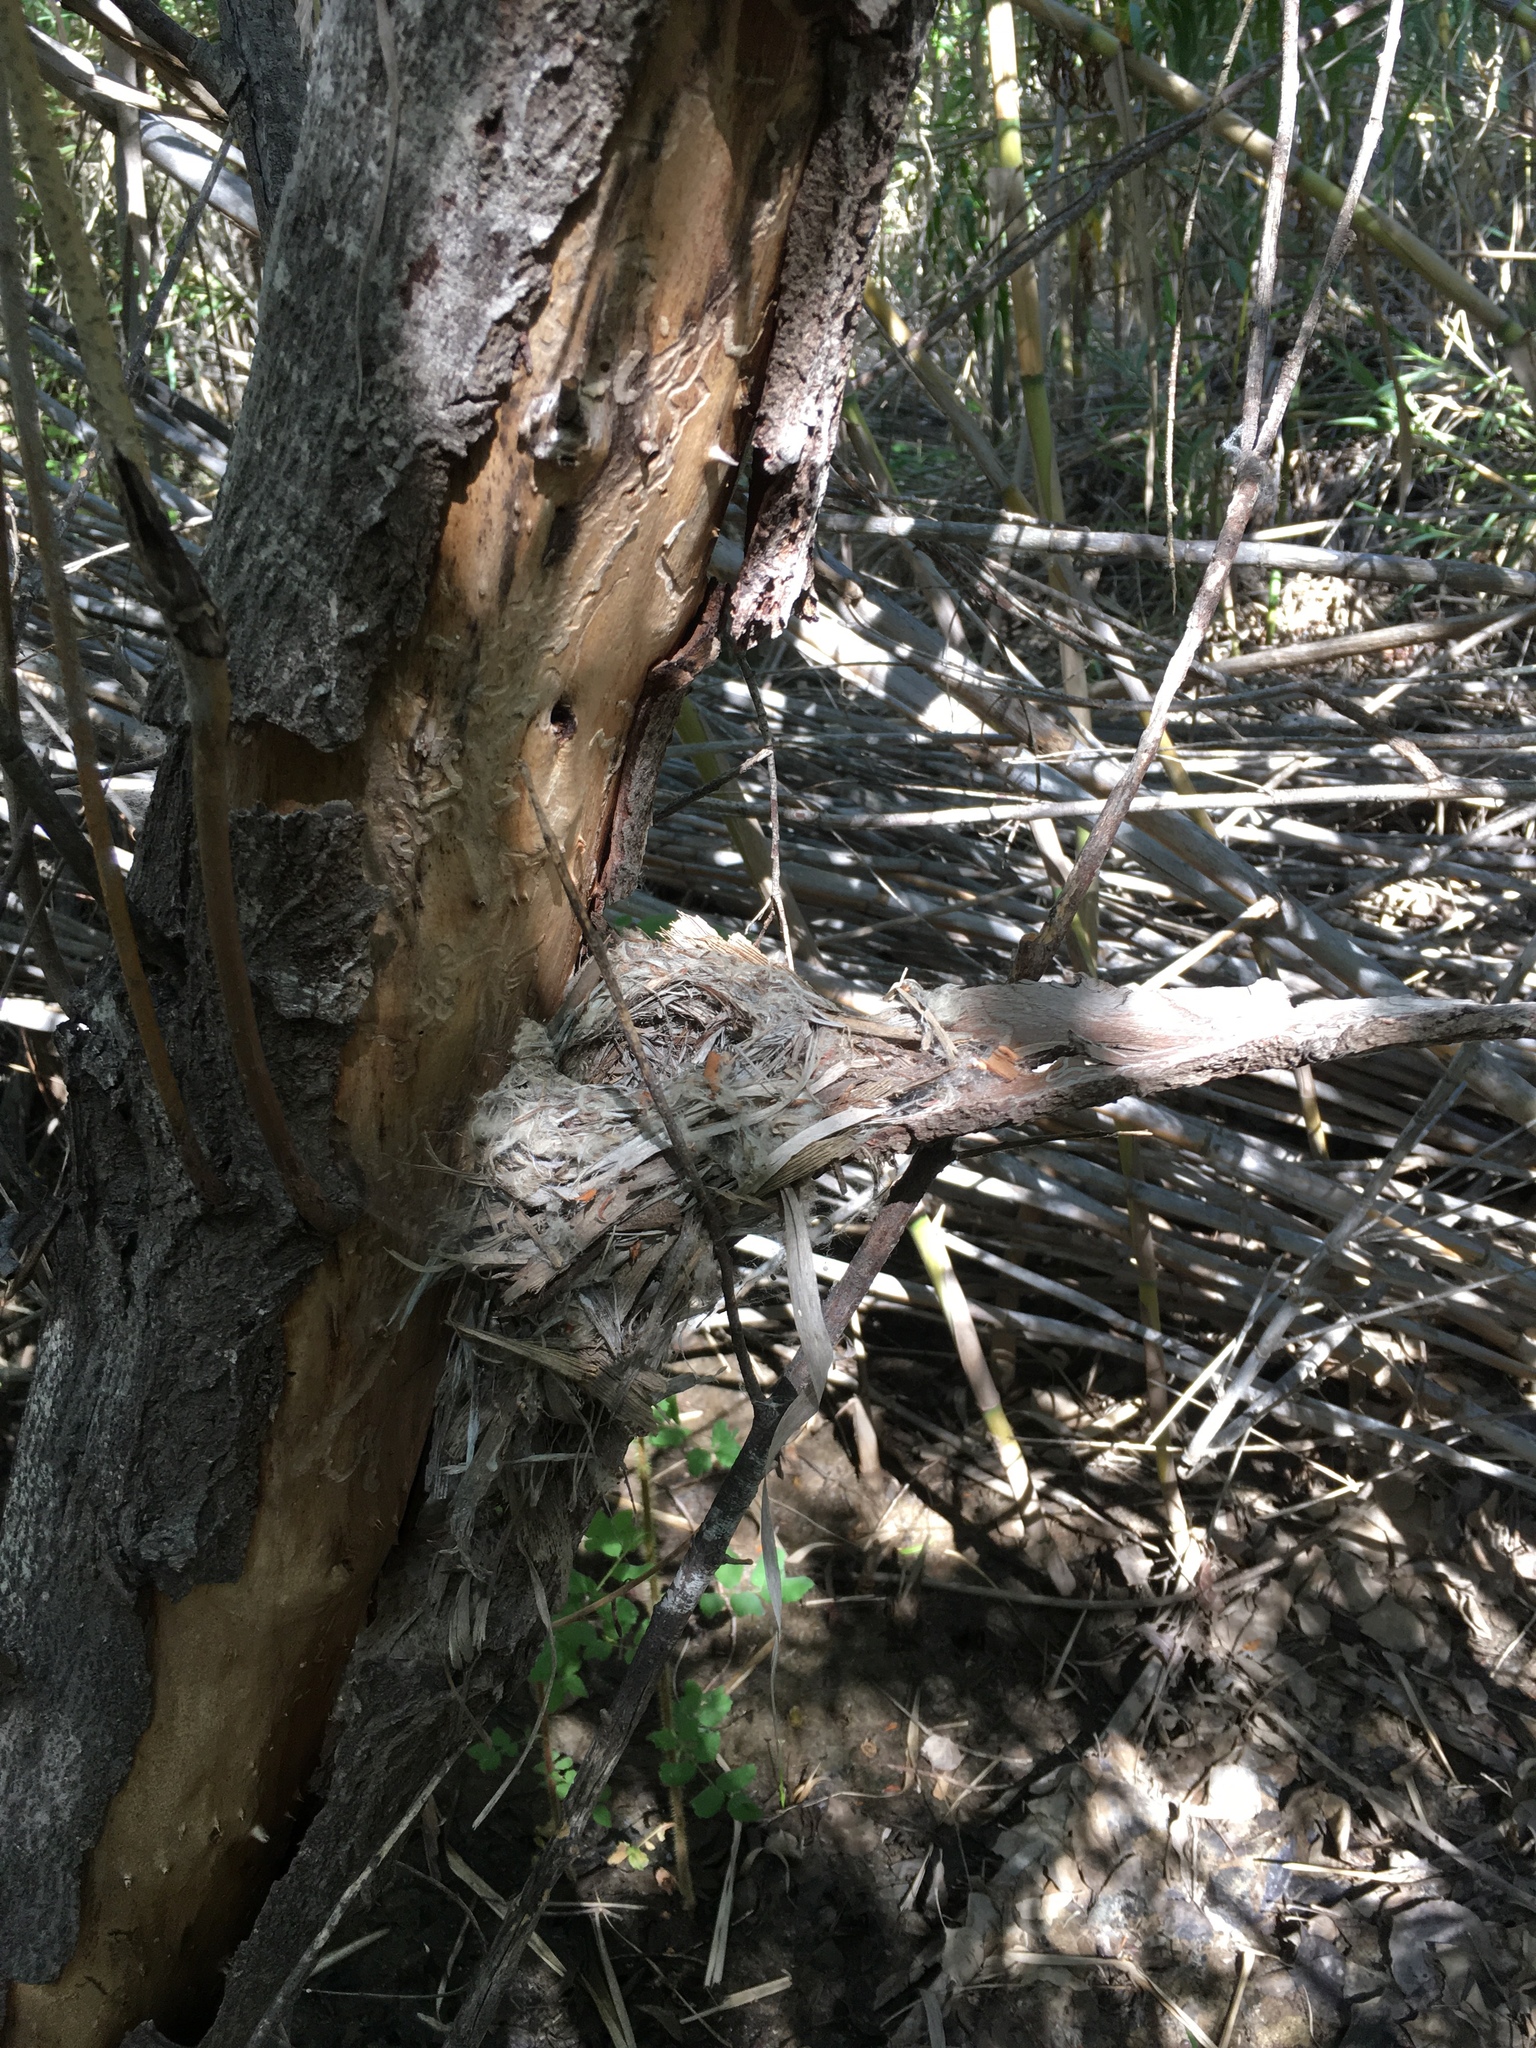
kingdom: Animalia
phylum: Chordata
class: Aves
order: Passeriformes
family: Tyrannidae
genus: Empidonax
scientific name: Empidonax difficilis
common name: Pacific-slope flycatcher
